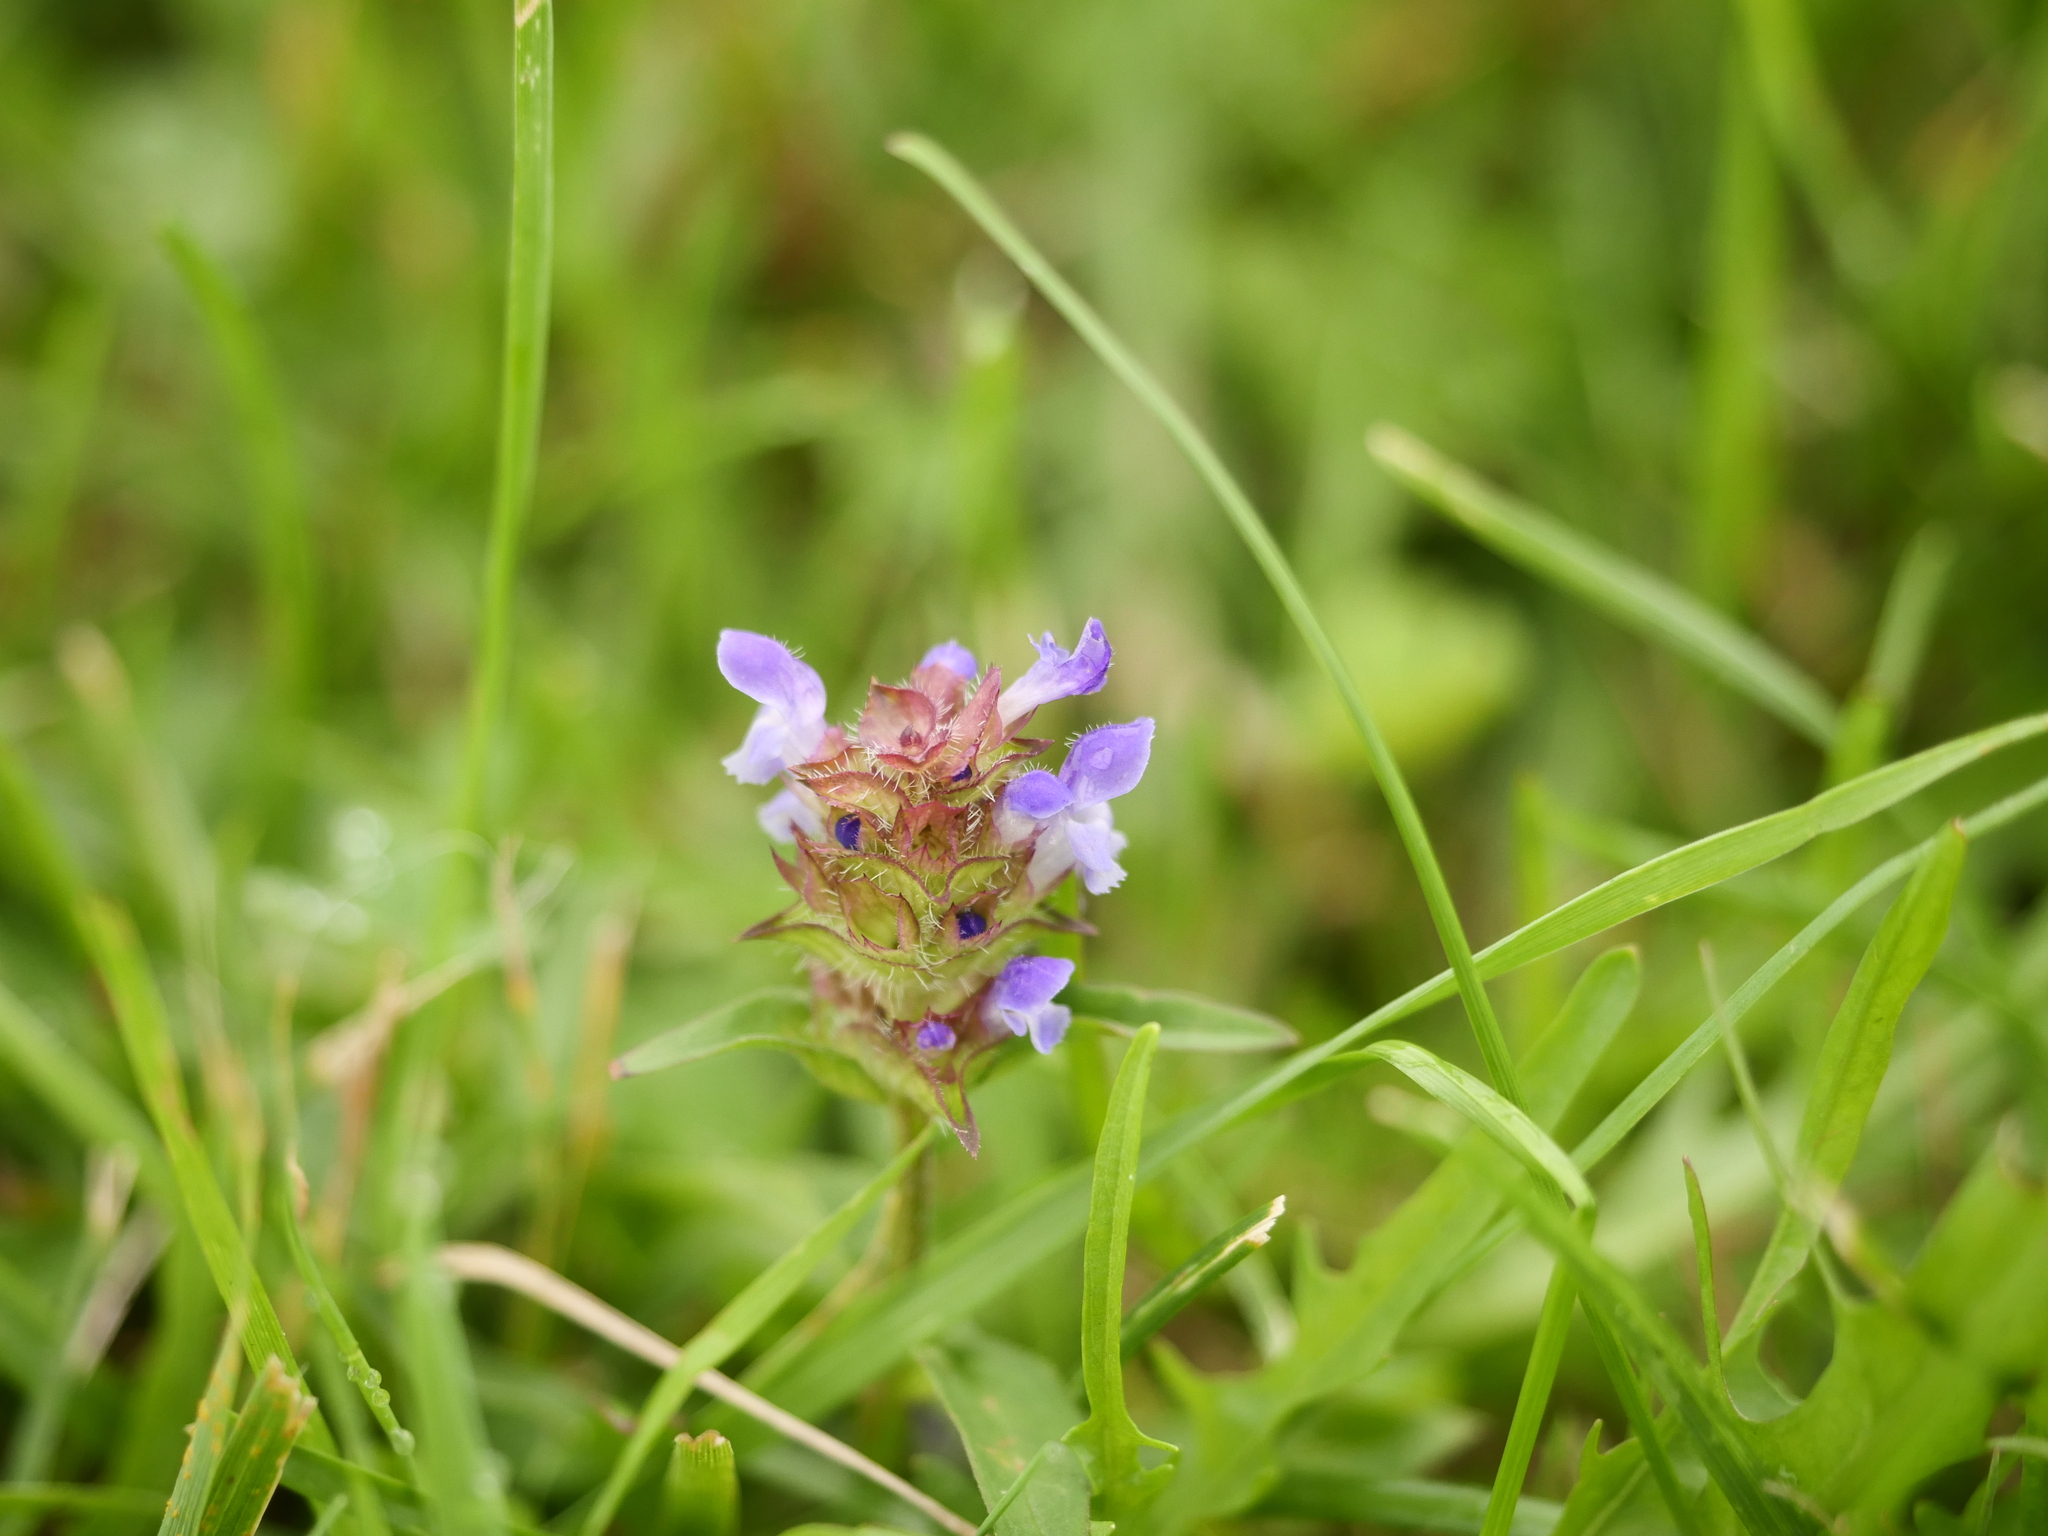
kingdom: Plantae
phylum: Tracheophyta
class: Magnoliopsida
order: Lamiales
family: Lamiaceae
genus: Prunella
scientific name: Prunella vulgaris
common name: Heal-all
